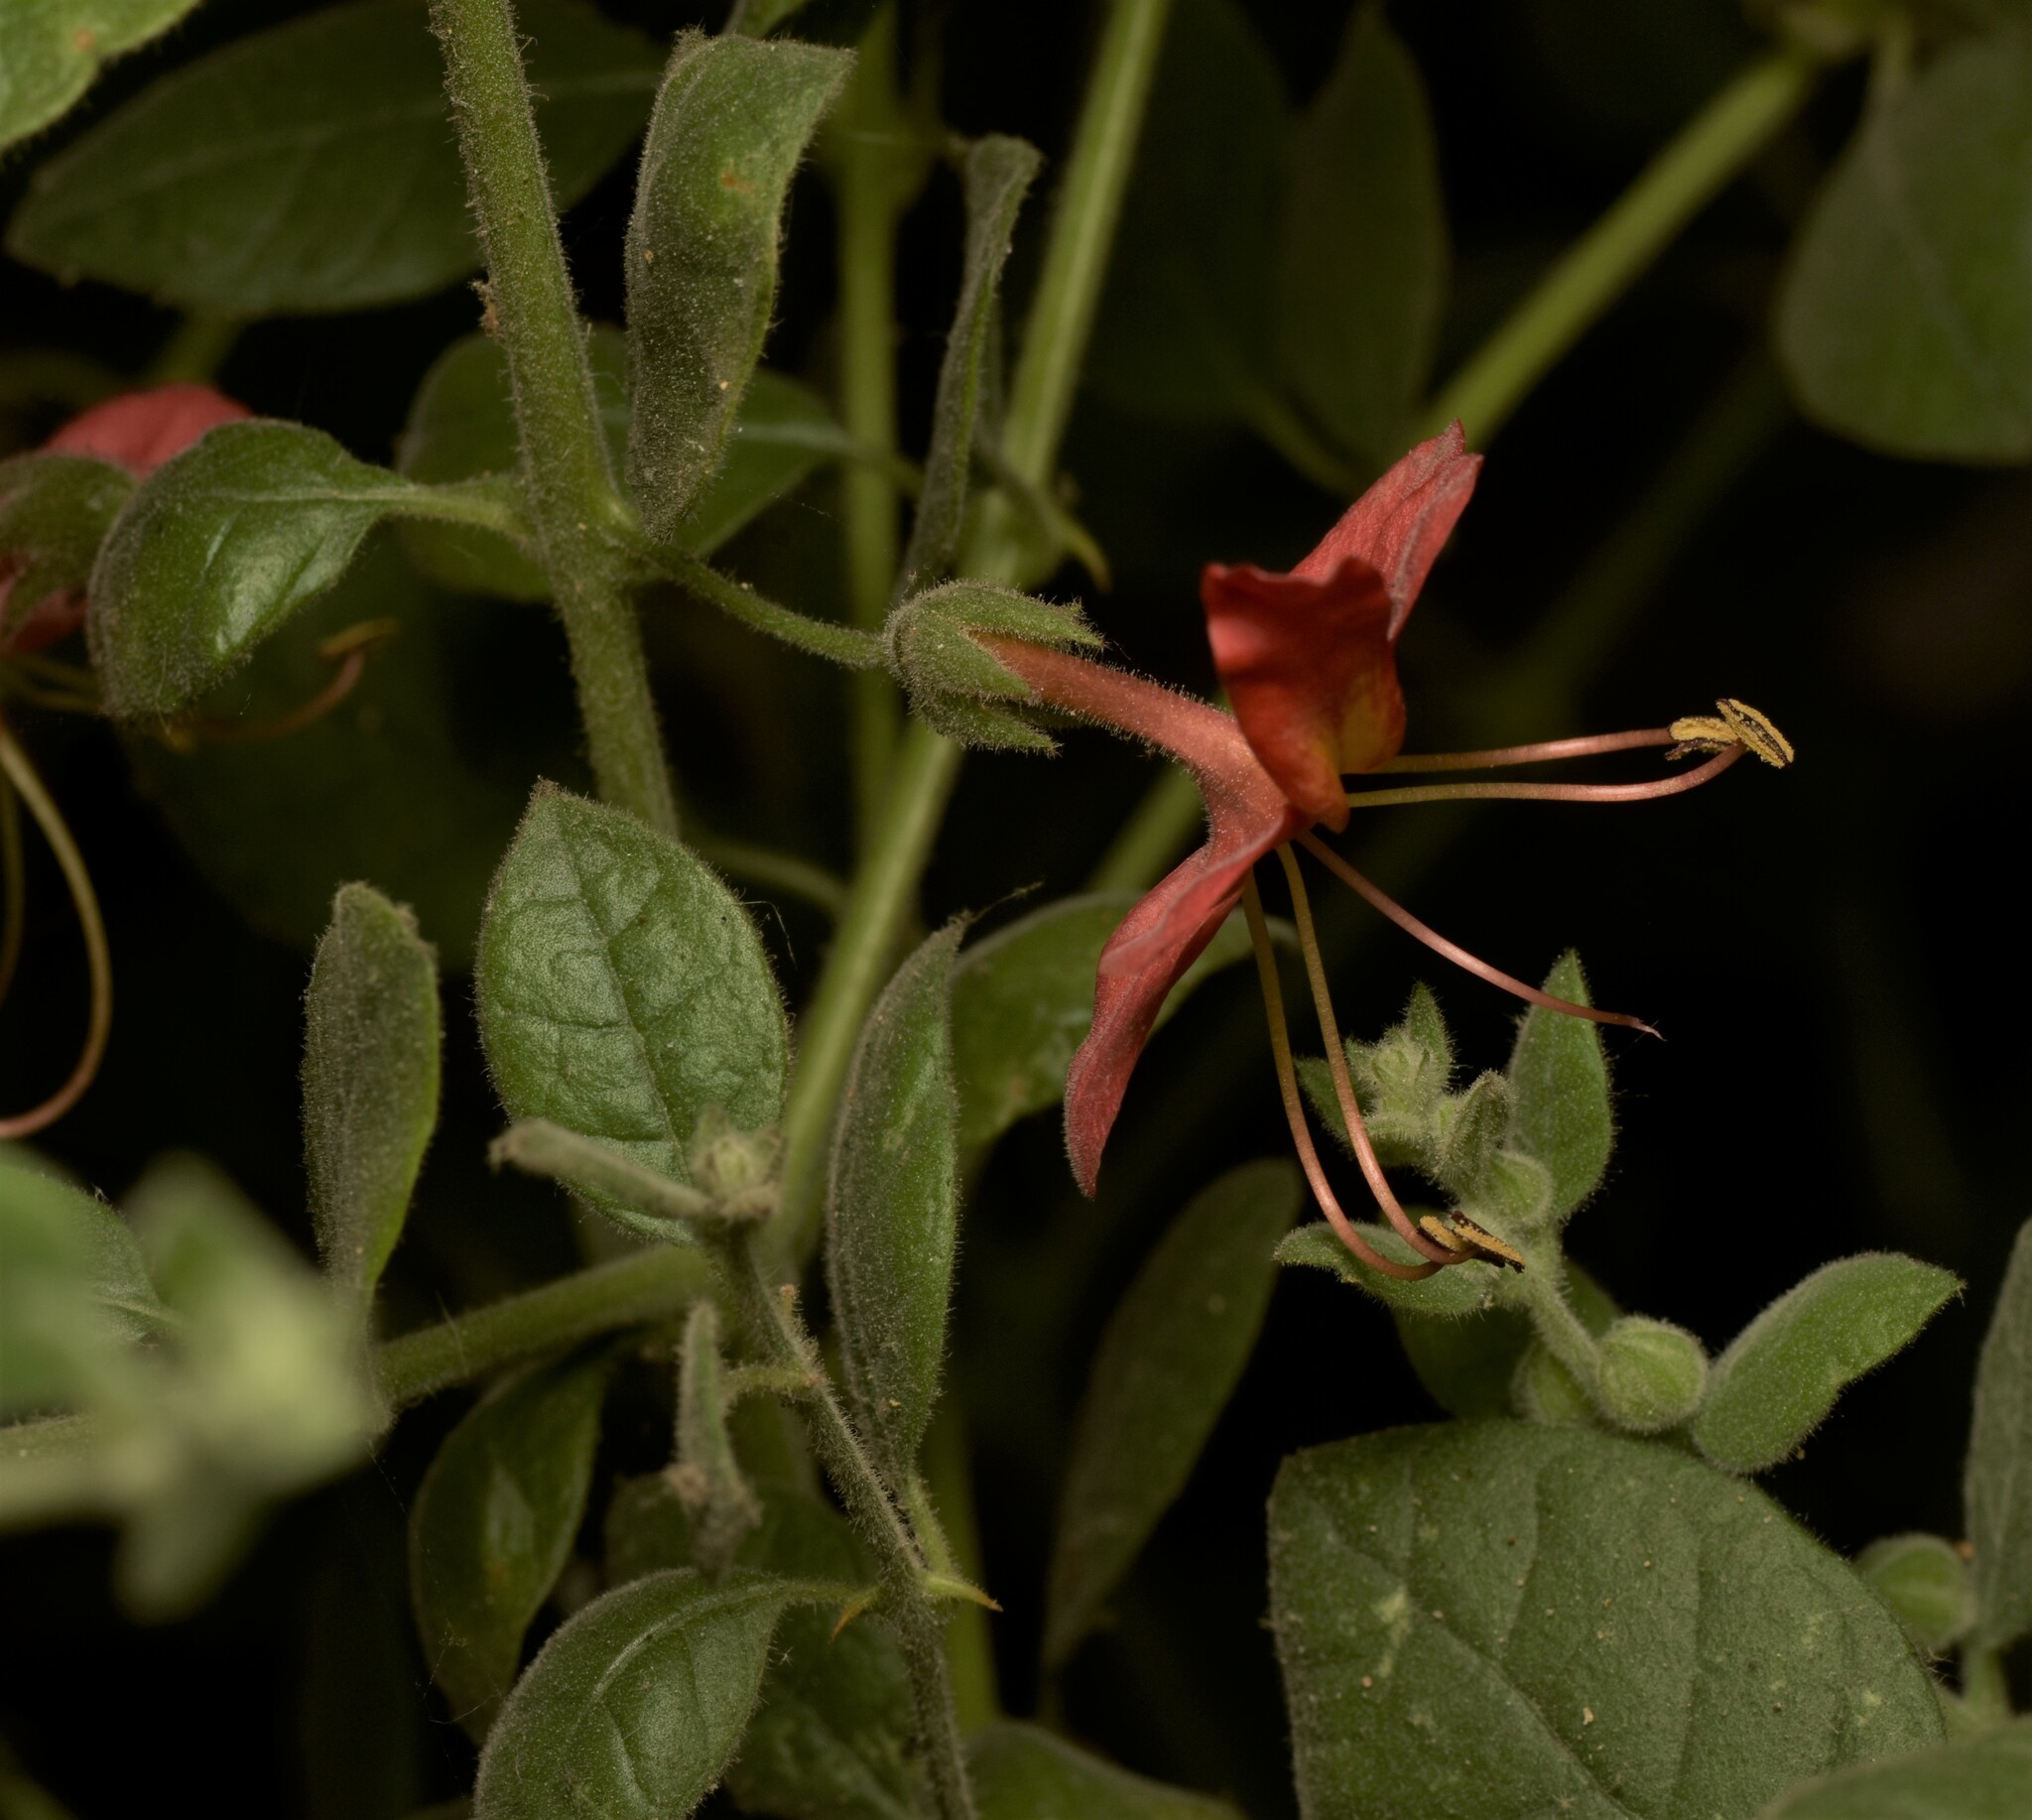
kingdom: Plantae
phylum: Tracheophyta
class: Magnoliopsida
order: Lamiales
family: Lamiaceae
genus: Kalaharia
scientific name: Kalaharia uncinata
